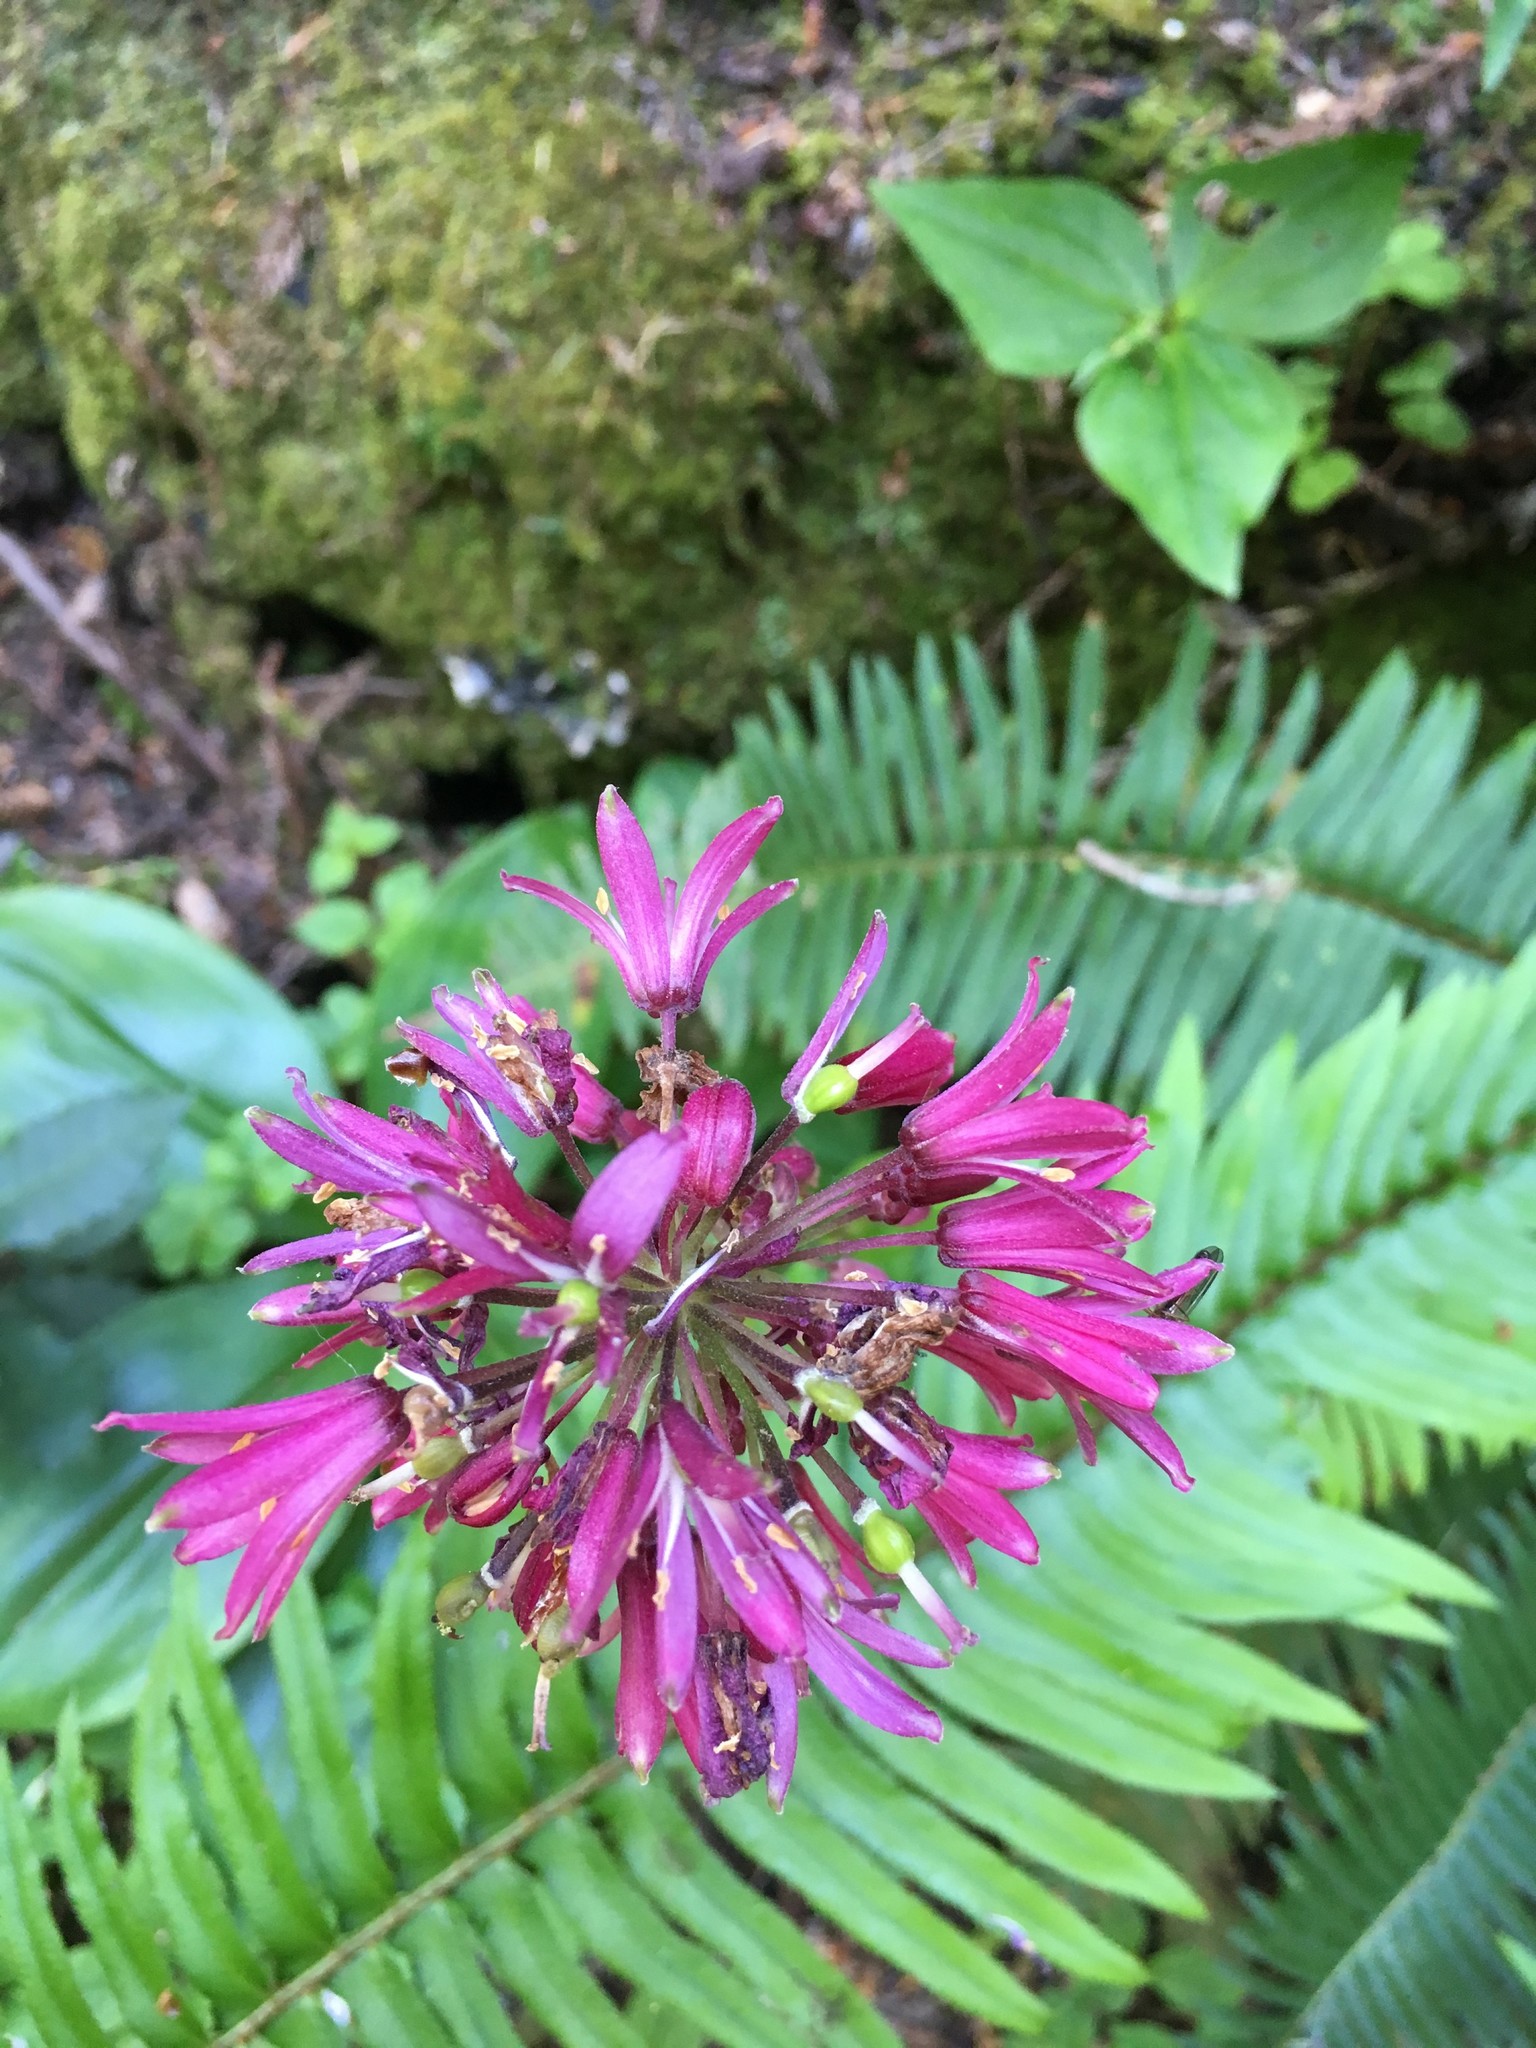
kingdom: Plantae
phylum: Tracheophyta
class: Liliopsida
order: Liliales
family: Liliaceae
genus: Clintonia
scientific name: Clintonia andrewsiana
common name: Red clintonia
